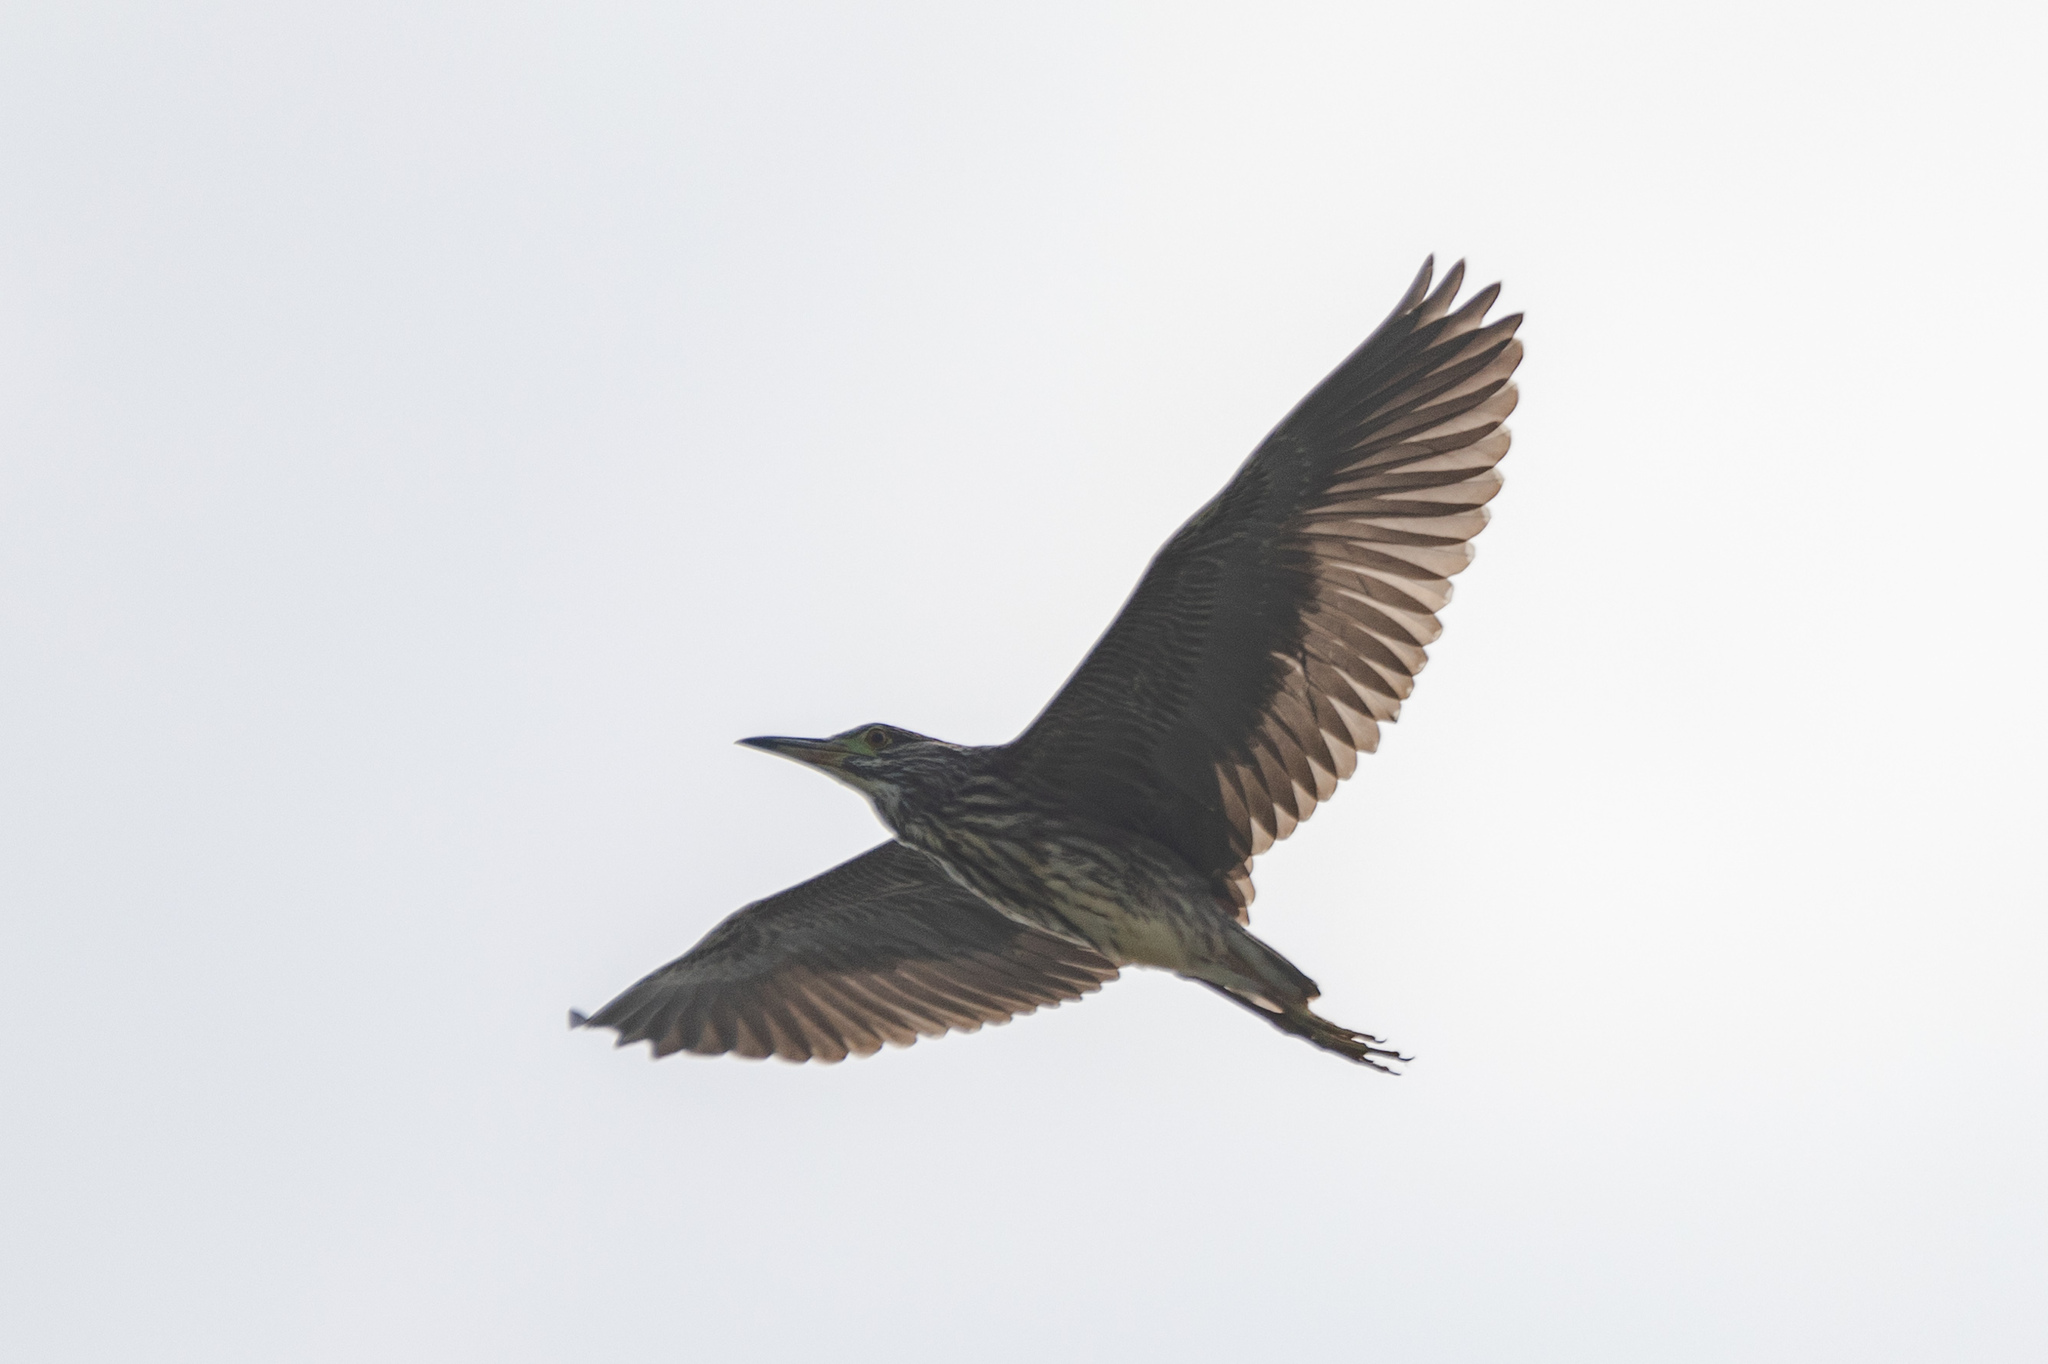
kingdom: Animalia
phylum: Chordata
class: Aves
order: Pelecaniformes
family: Ardeidae
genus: Nycticorax
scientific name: Nycticorax nycticorax
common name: Black-crowned night heron
